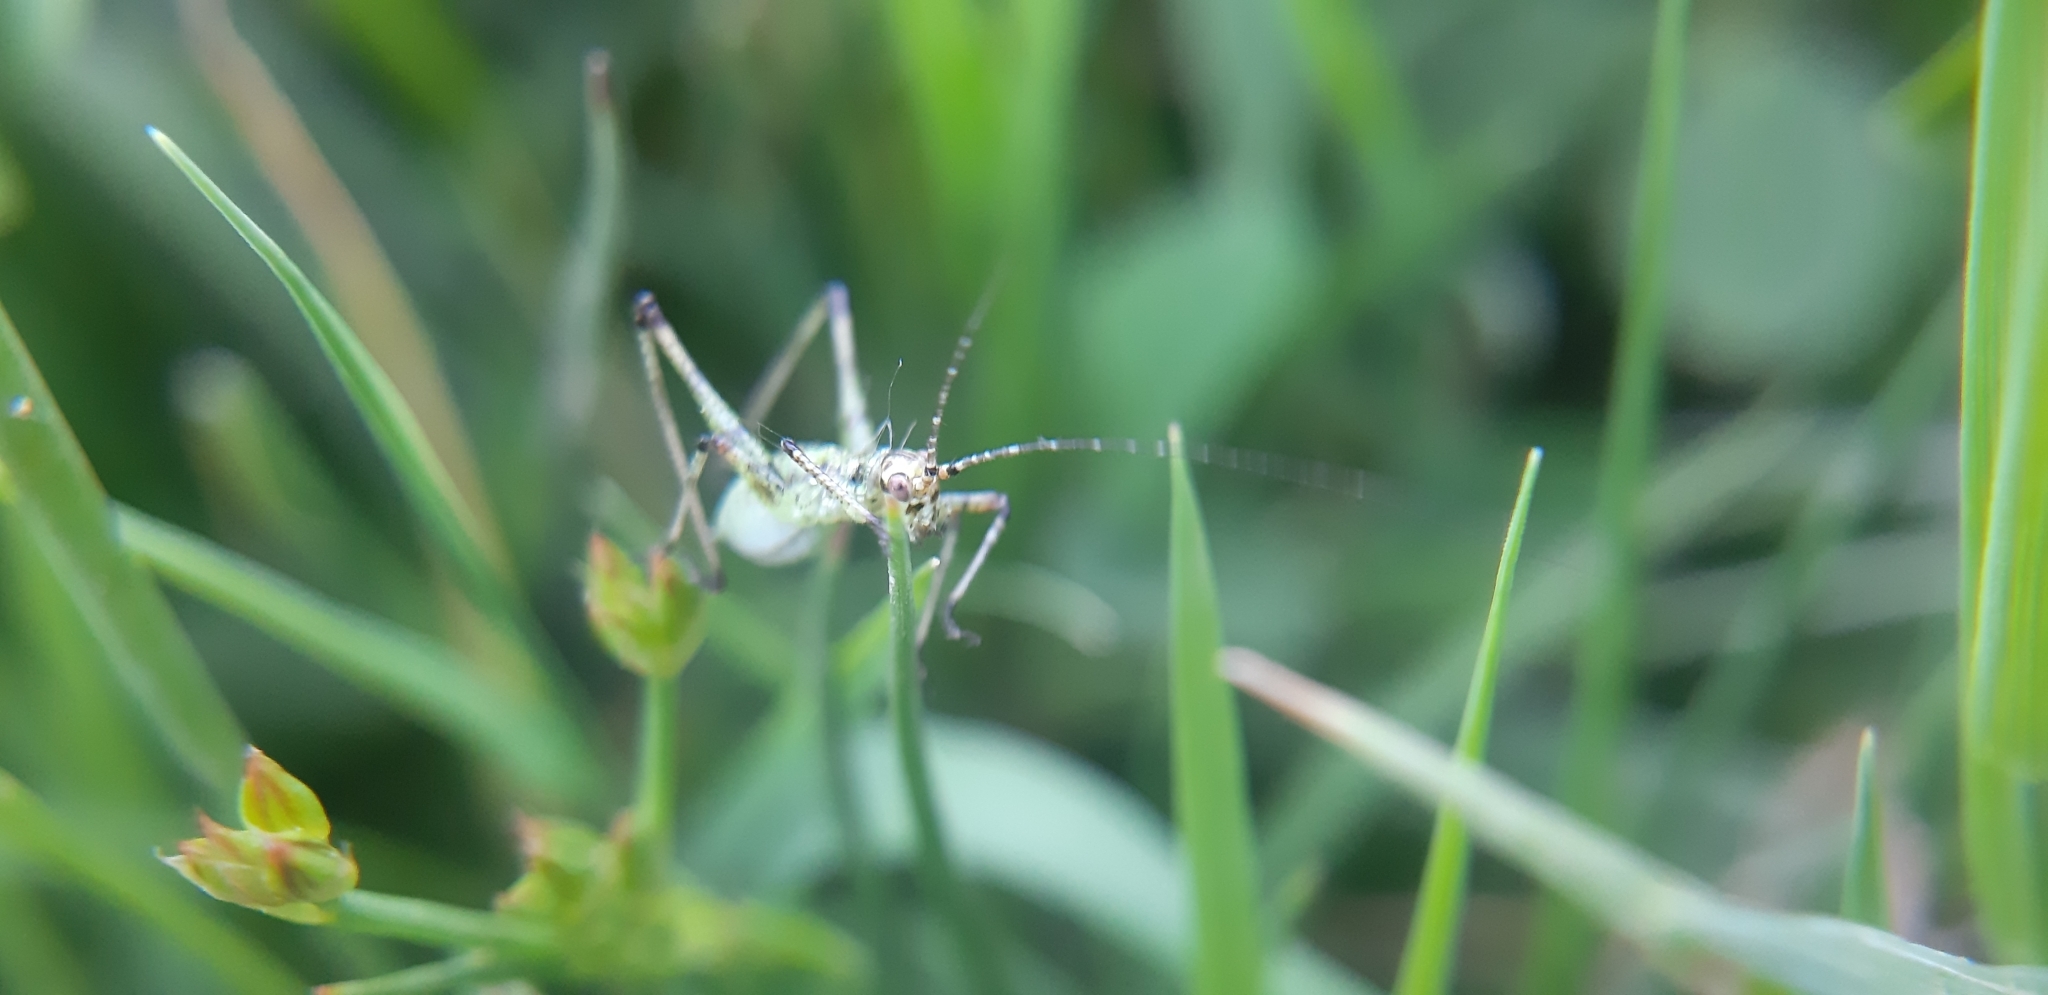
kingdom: Animalia
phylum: Arthropoda
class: Insecta
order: Orthoptera
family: Tettigoniidae
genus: Phaneroptera
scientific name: Phaneroptera nana
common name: Southern sickle bush-cricket
